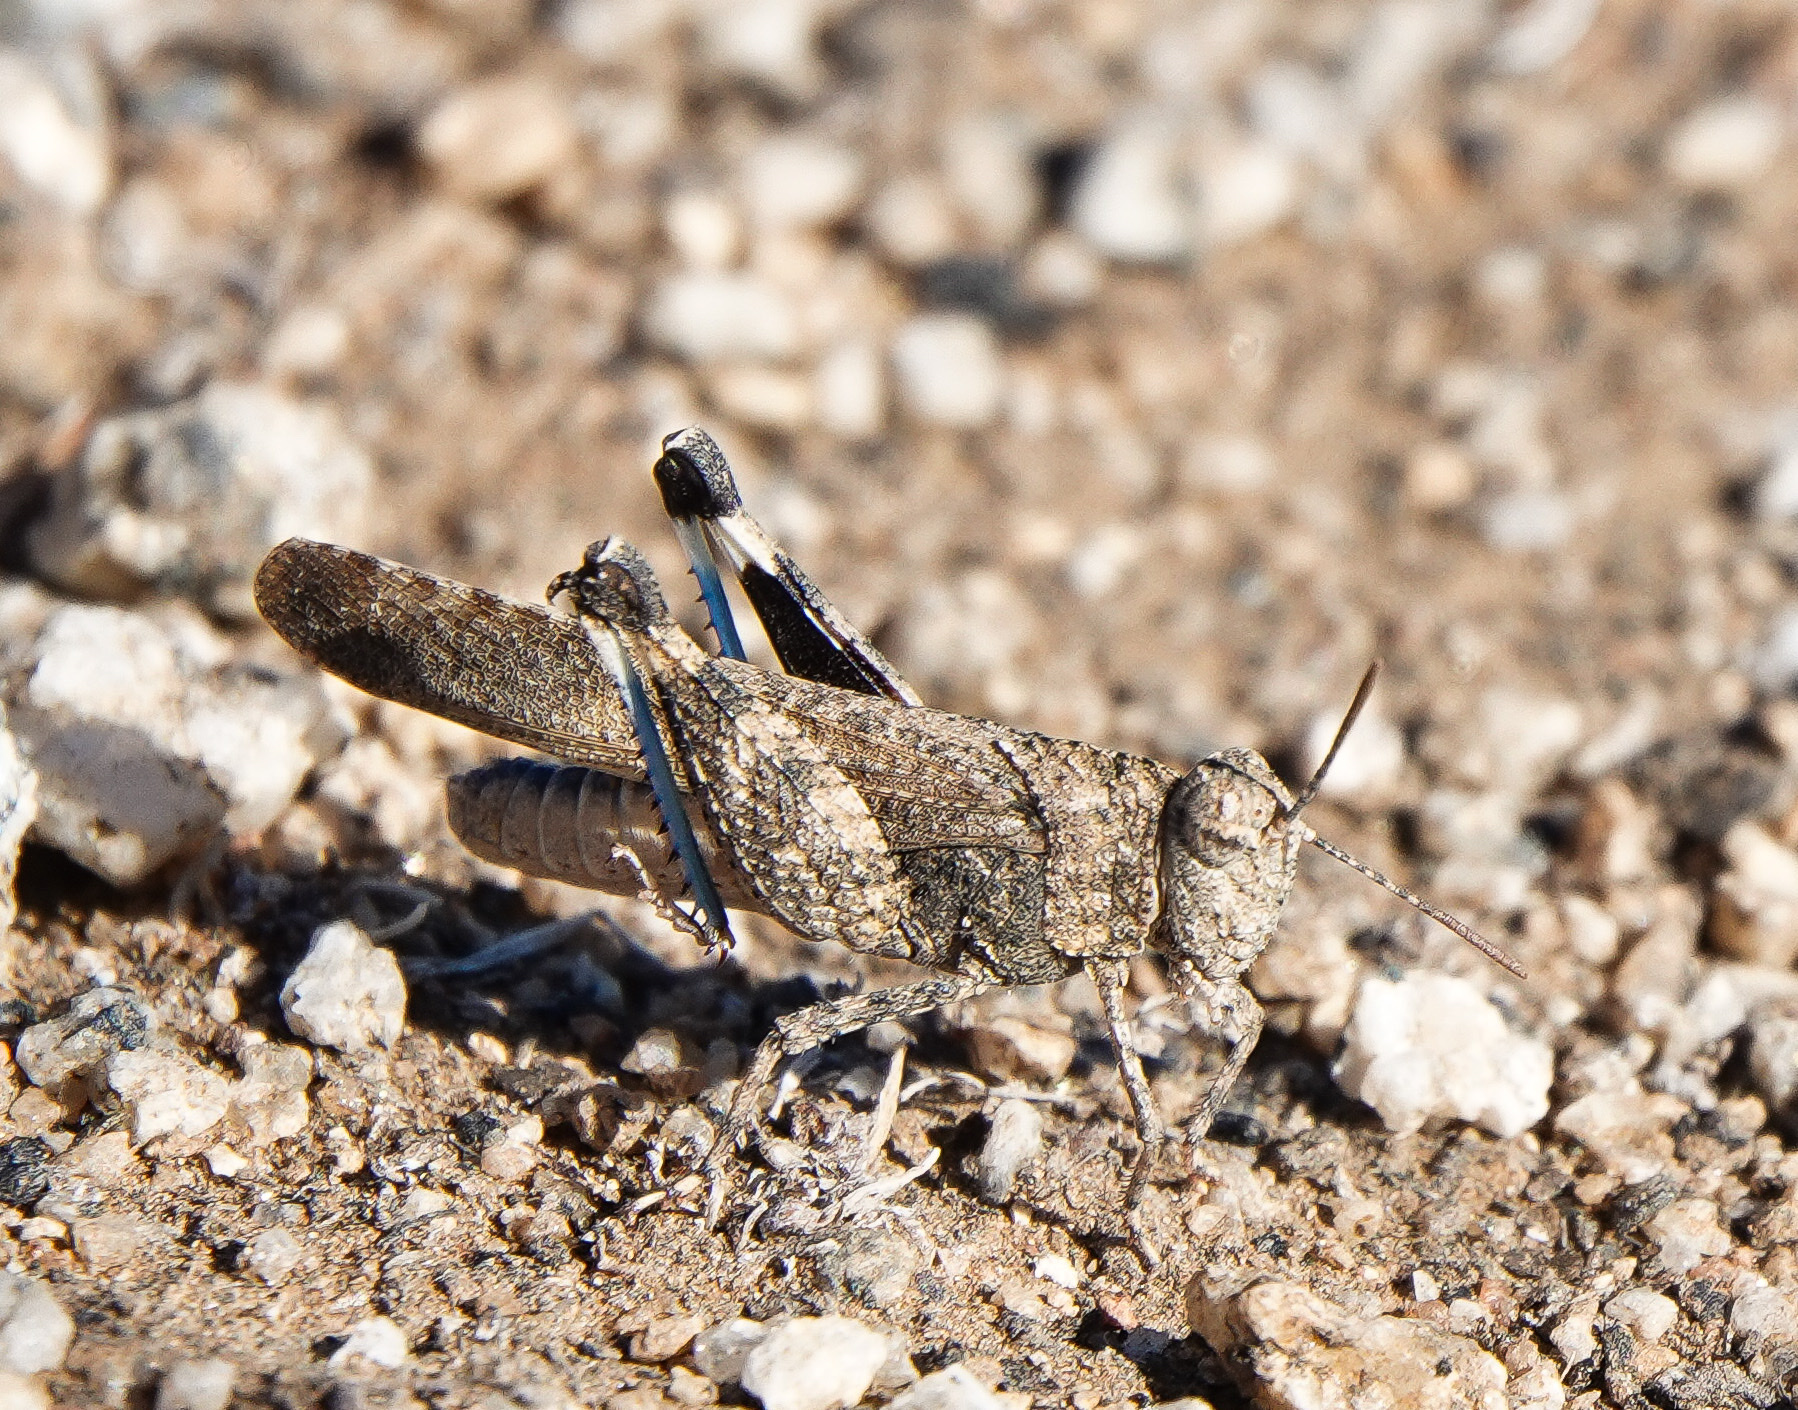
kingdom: Animalia
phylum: Arthropoda
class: Insecta
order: Orthoptera
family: Acrididae
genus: Lactista
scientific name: Lactista gibbosus
